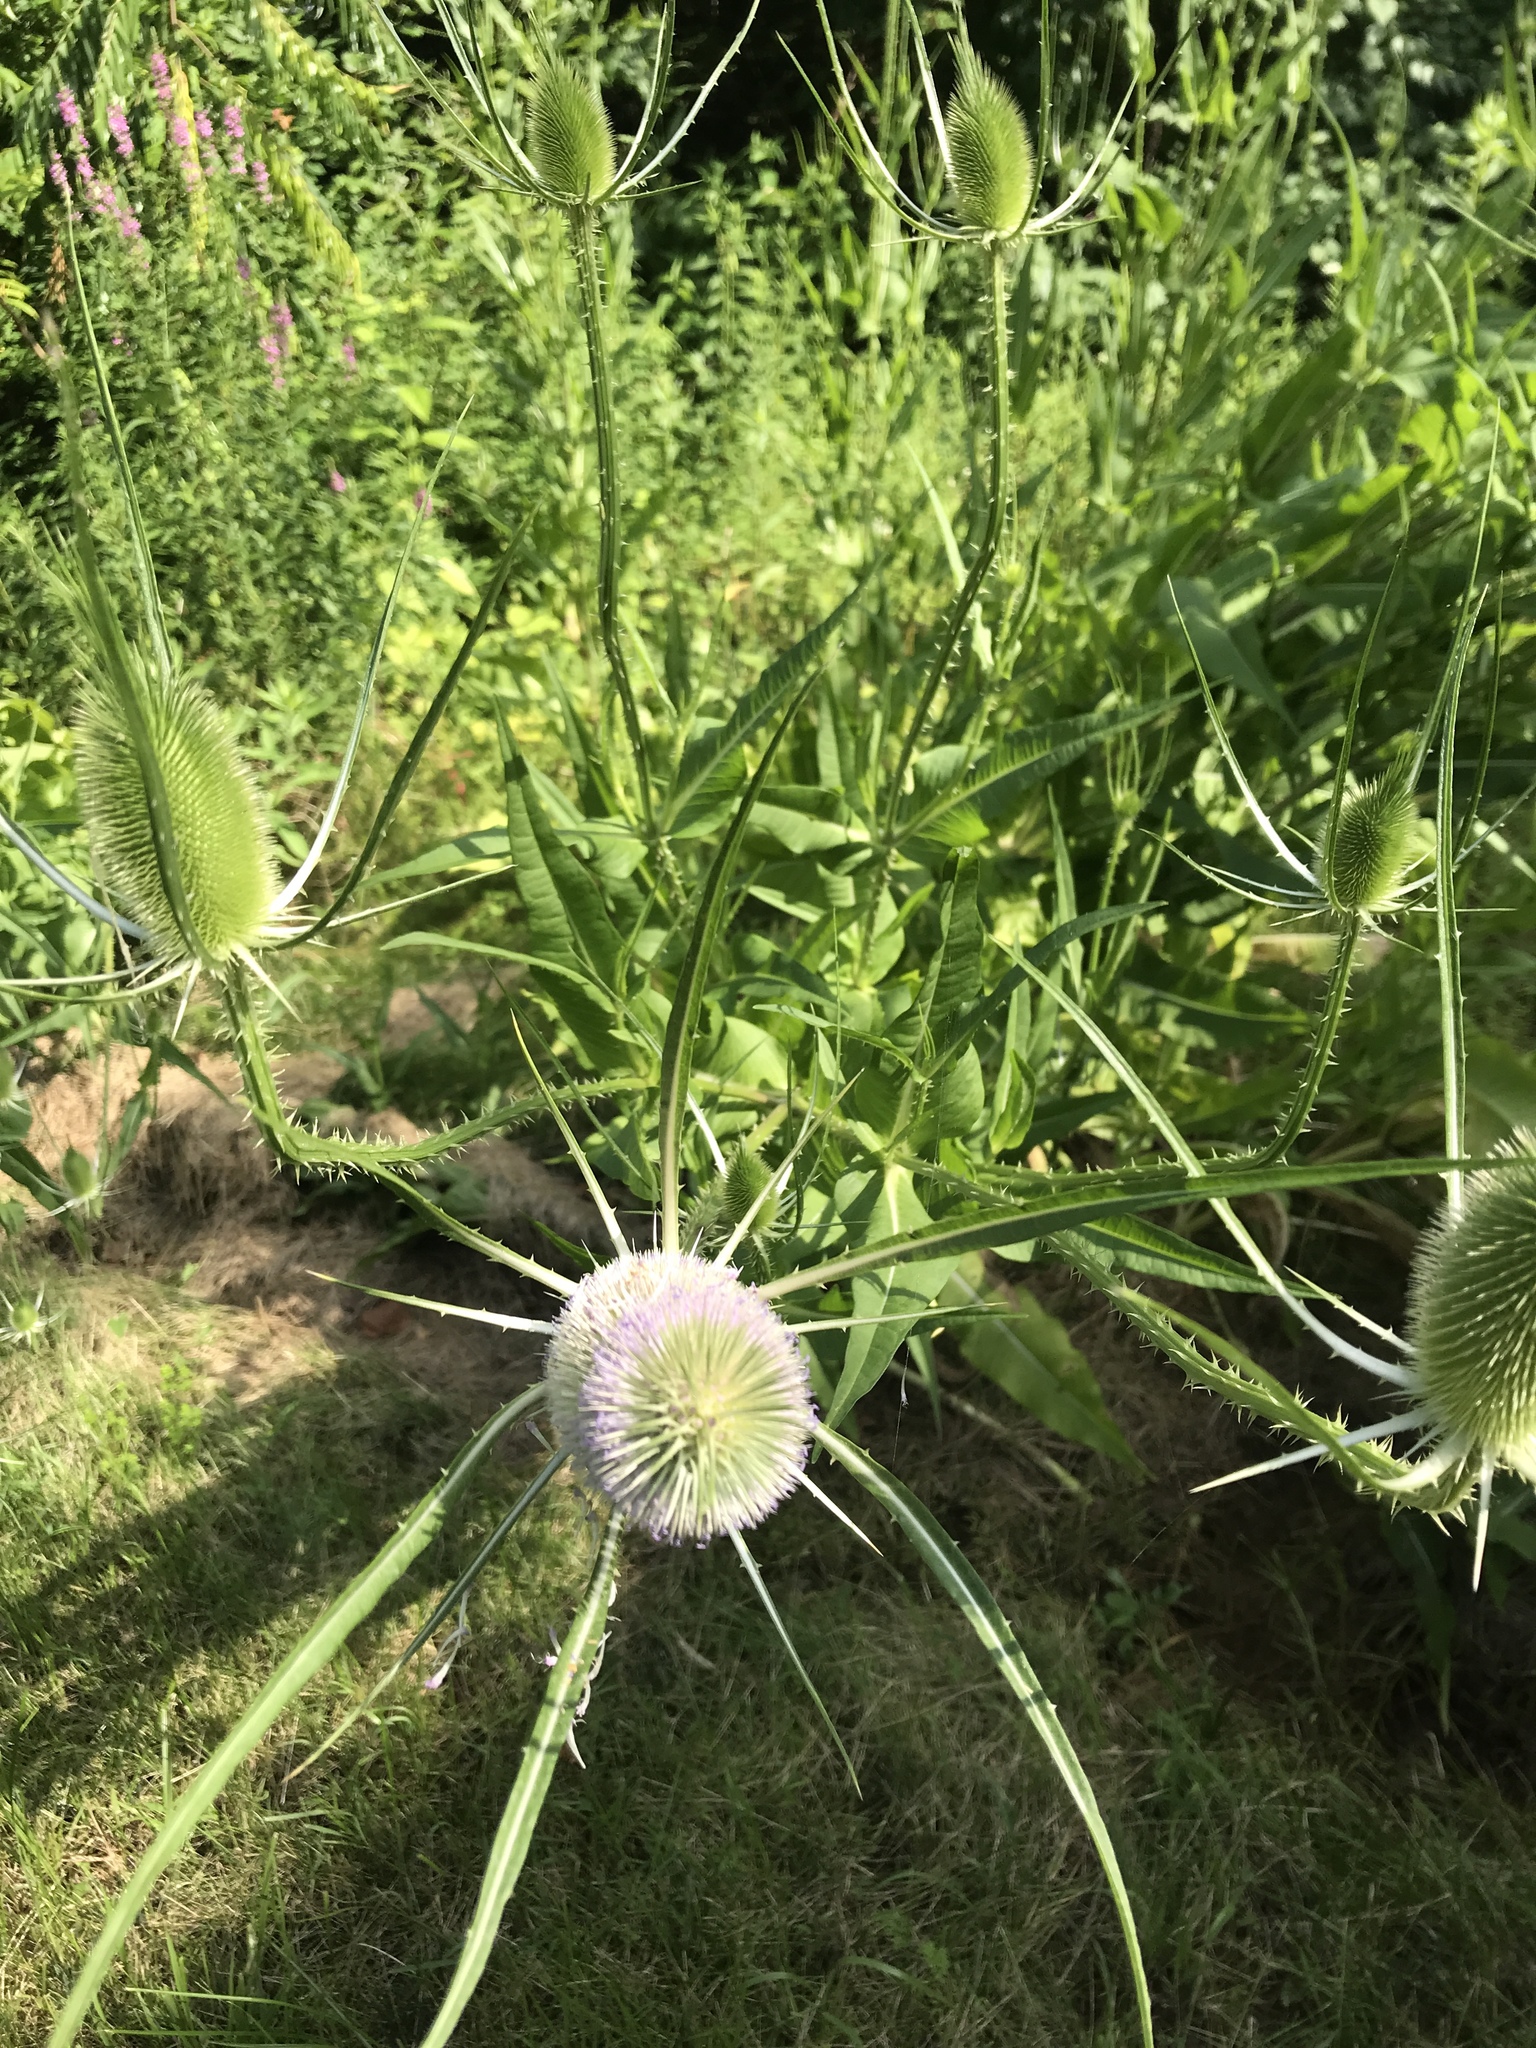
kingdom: Plantae
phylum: Tracheophyta
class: Magnoliopsida
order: Dipsacales
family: Caprifoliaceae
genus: Dipsacus
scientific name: Dipsacus fullonum
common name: Teasel
